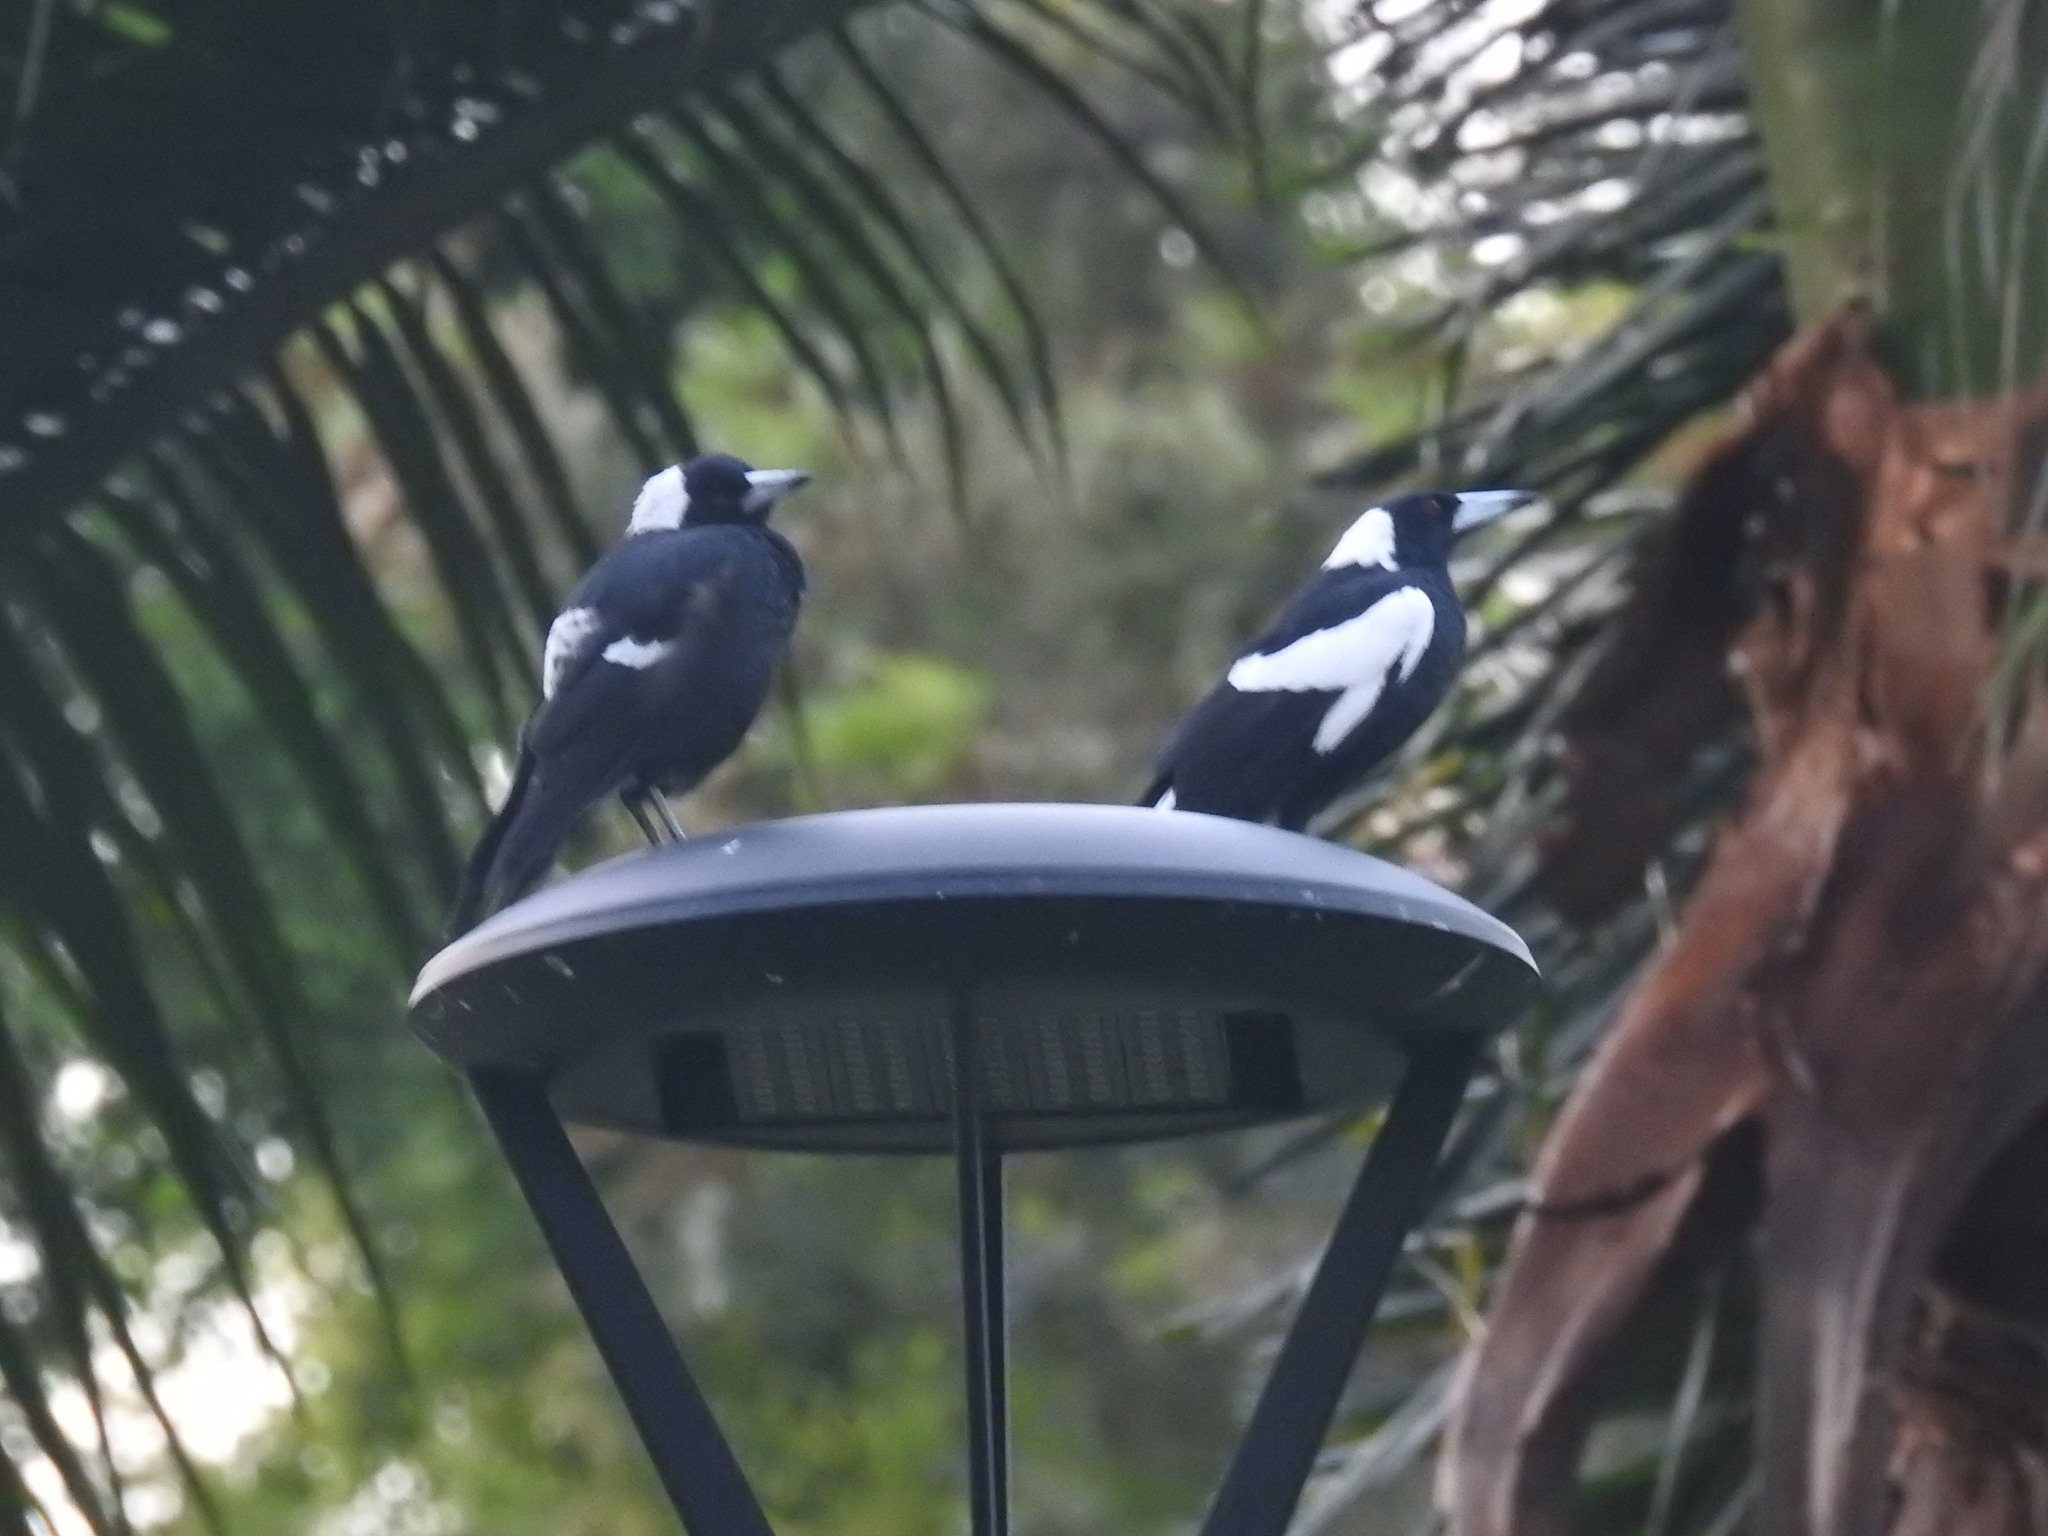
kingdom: Animalia
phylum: Chordata
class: Aves
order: Passeriformes
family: Cracticidae
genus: Gymnorhina
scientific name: Gymnorhina tibicen
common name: Australian magpie
